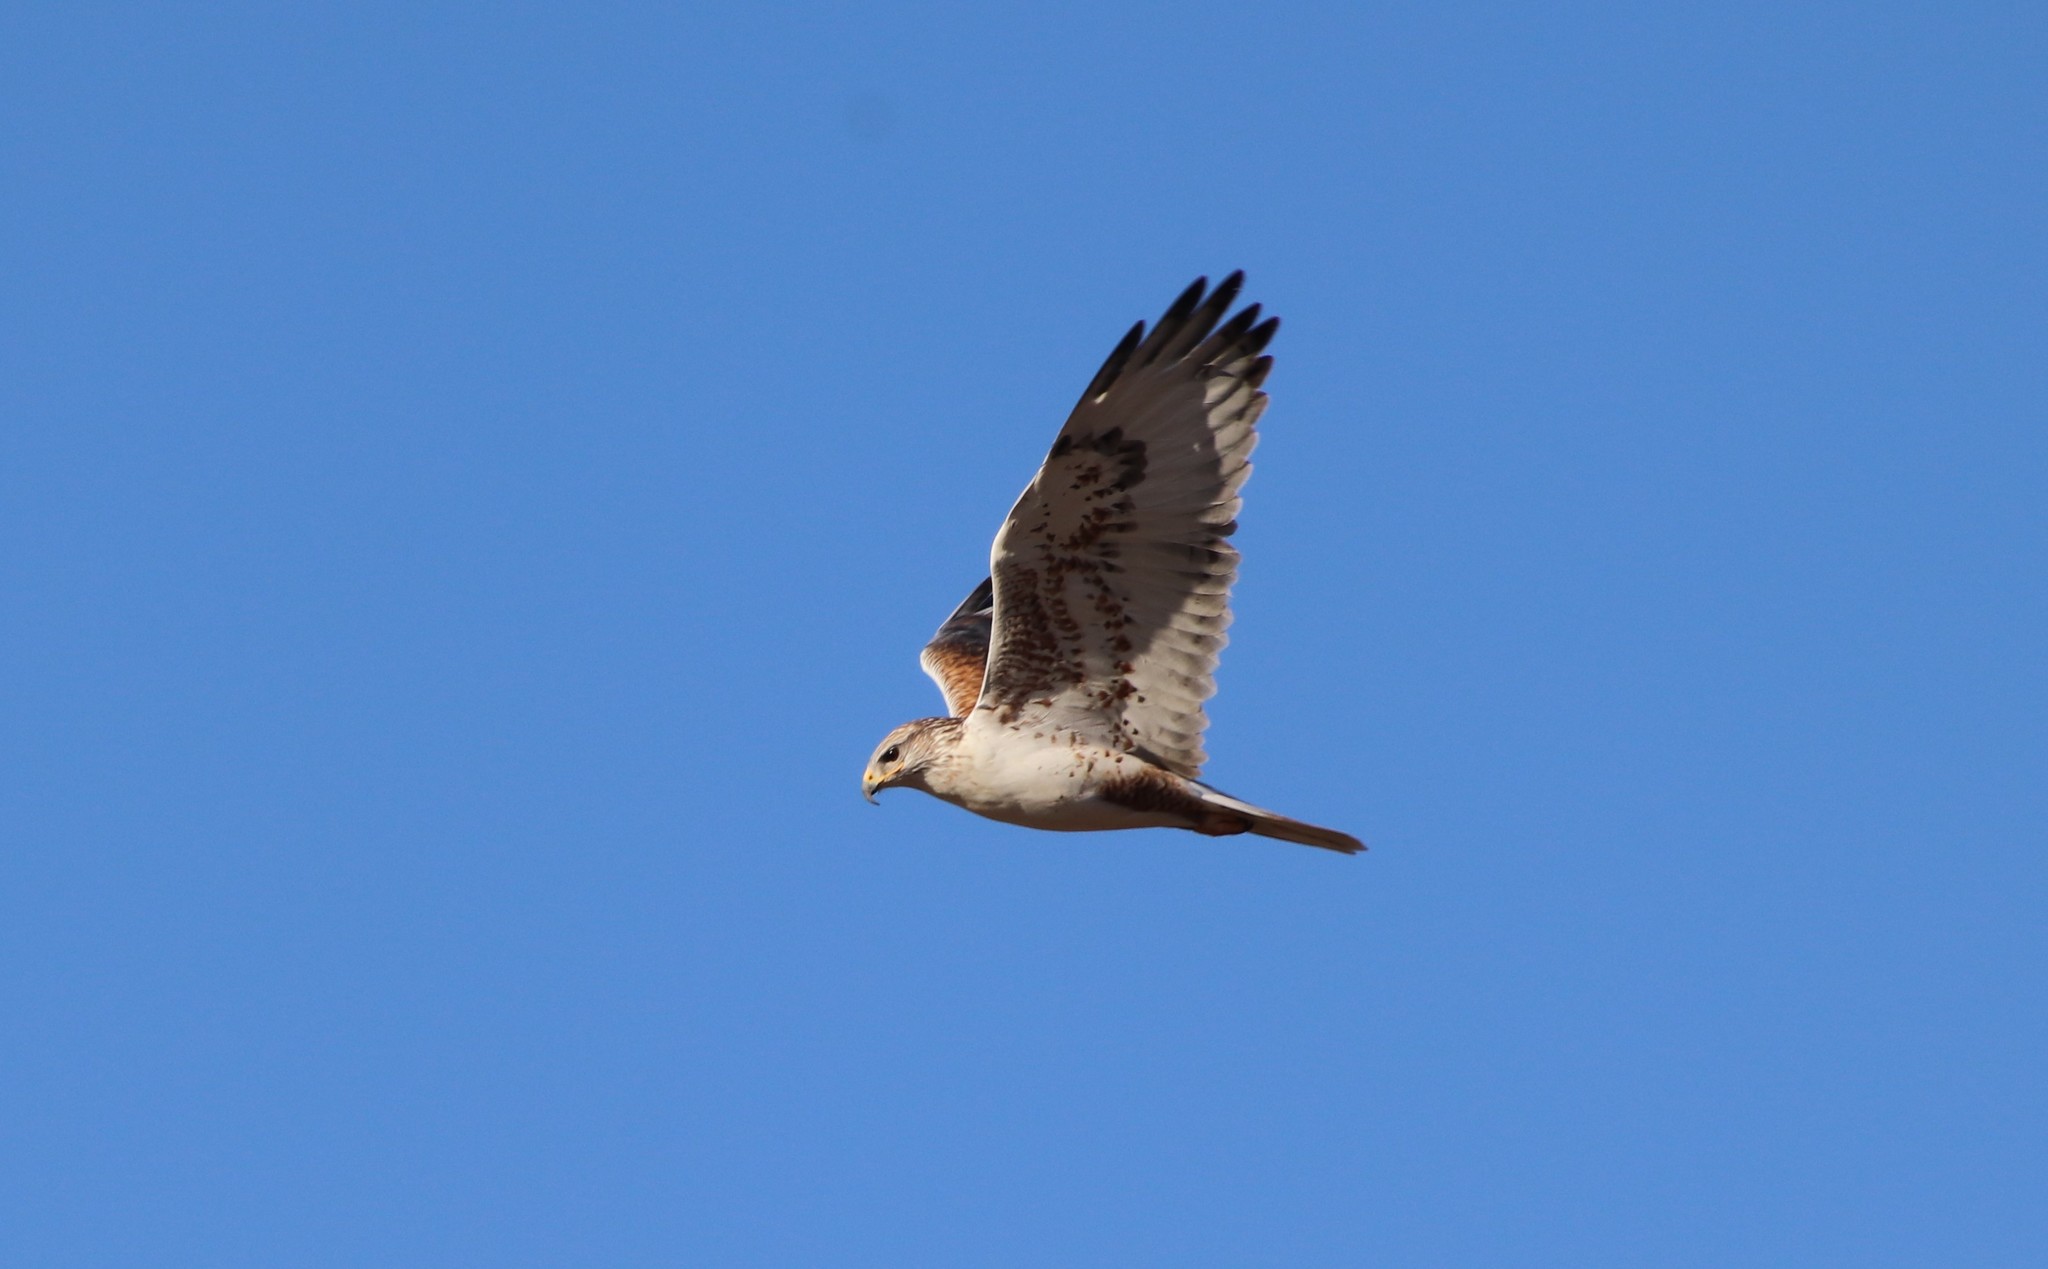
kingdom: Animalia
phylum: Chordata
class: Aves
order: Accipitriformes
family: Accipitridae
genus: Buteo
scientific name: Buteo regalis
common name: Ferruginous hawk
